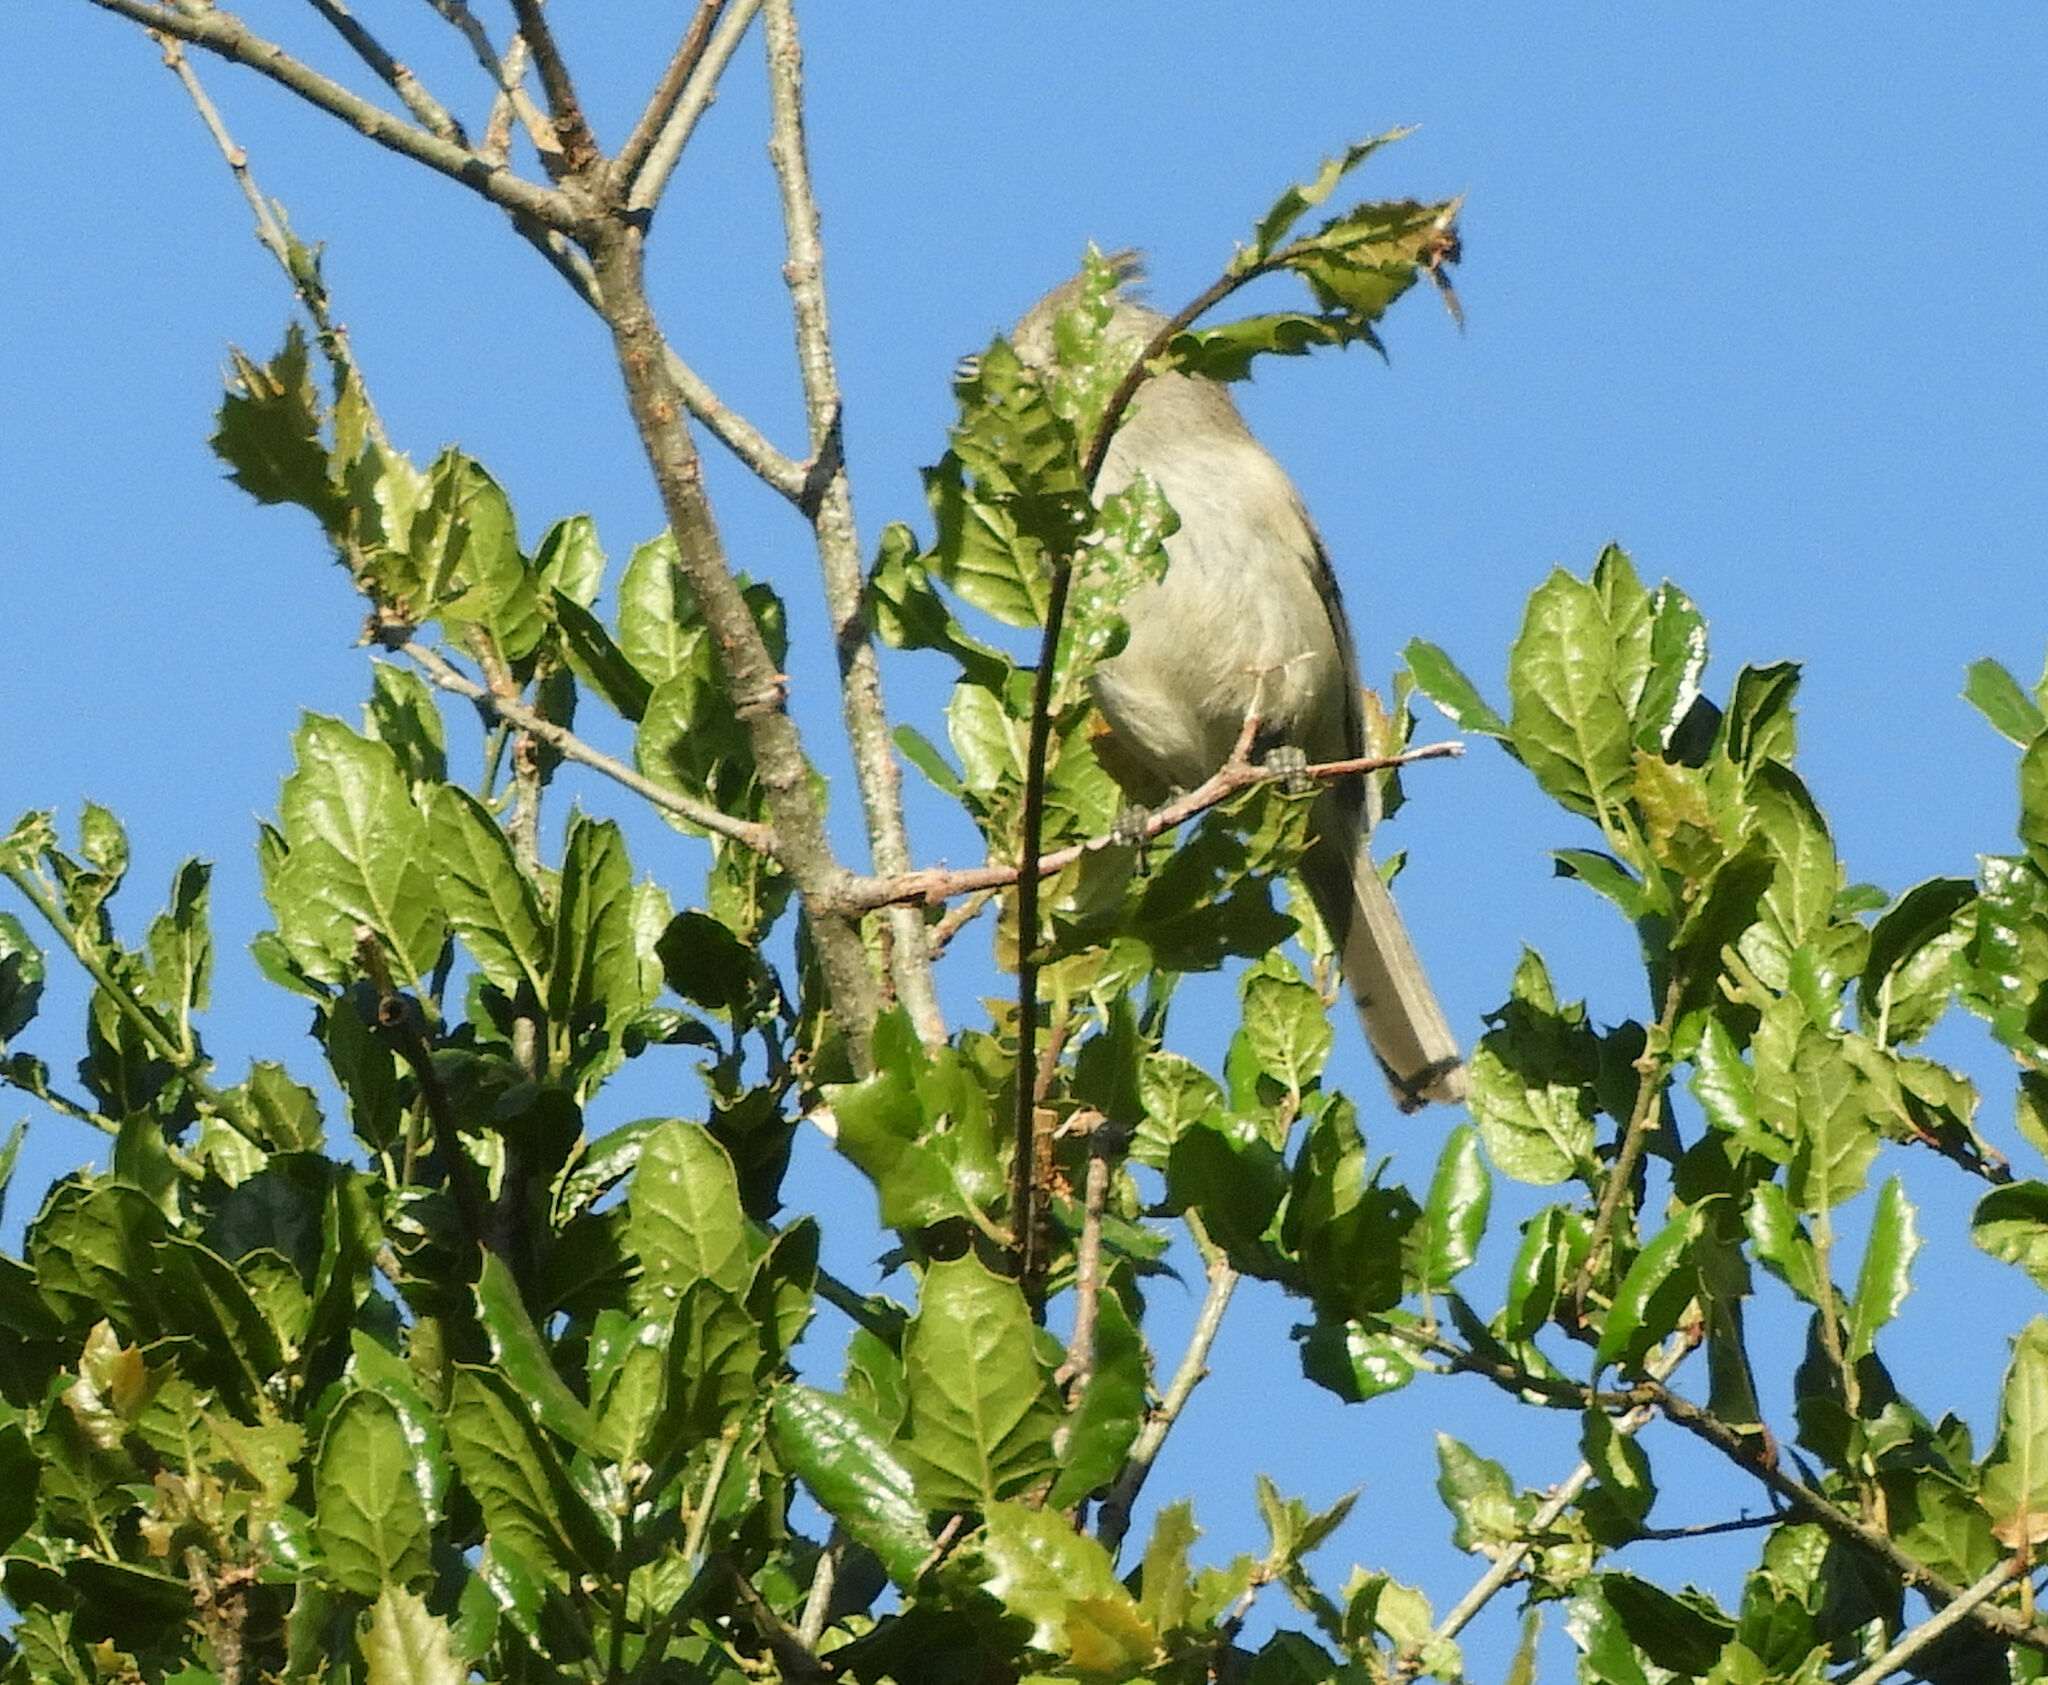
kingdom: Animalia
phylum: Chordata
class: Aves
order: Passeriformes
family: Paridae
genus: Baeolophus
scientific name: Baeolophus inornatus
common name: Oak titmouse
